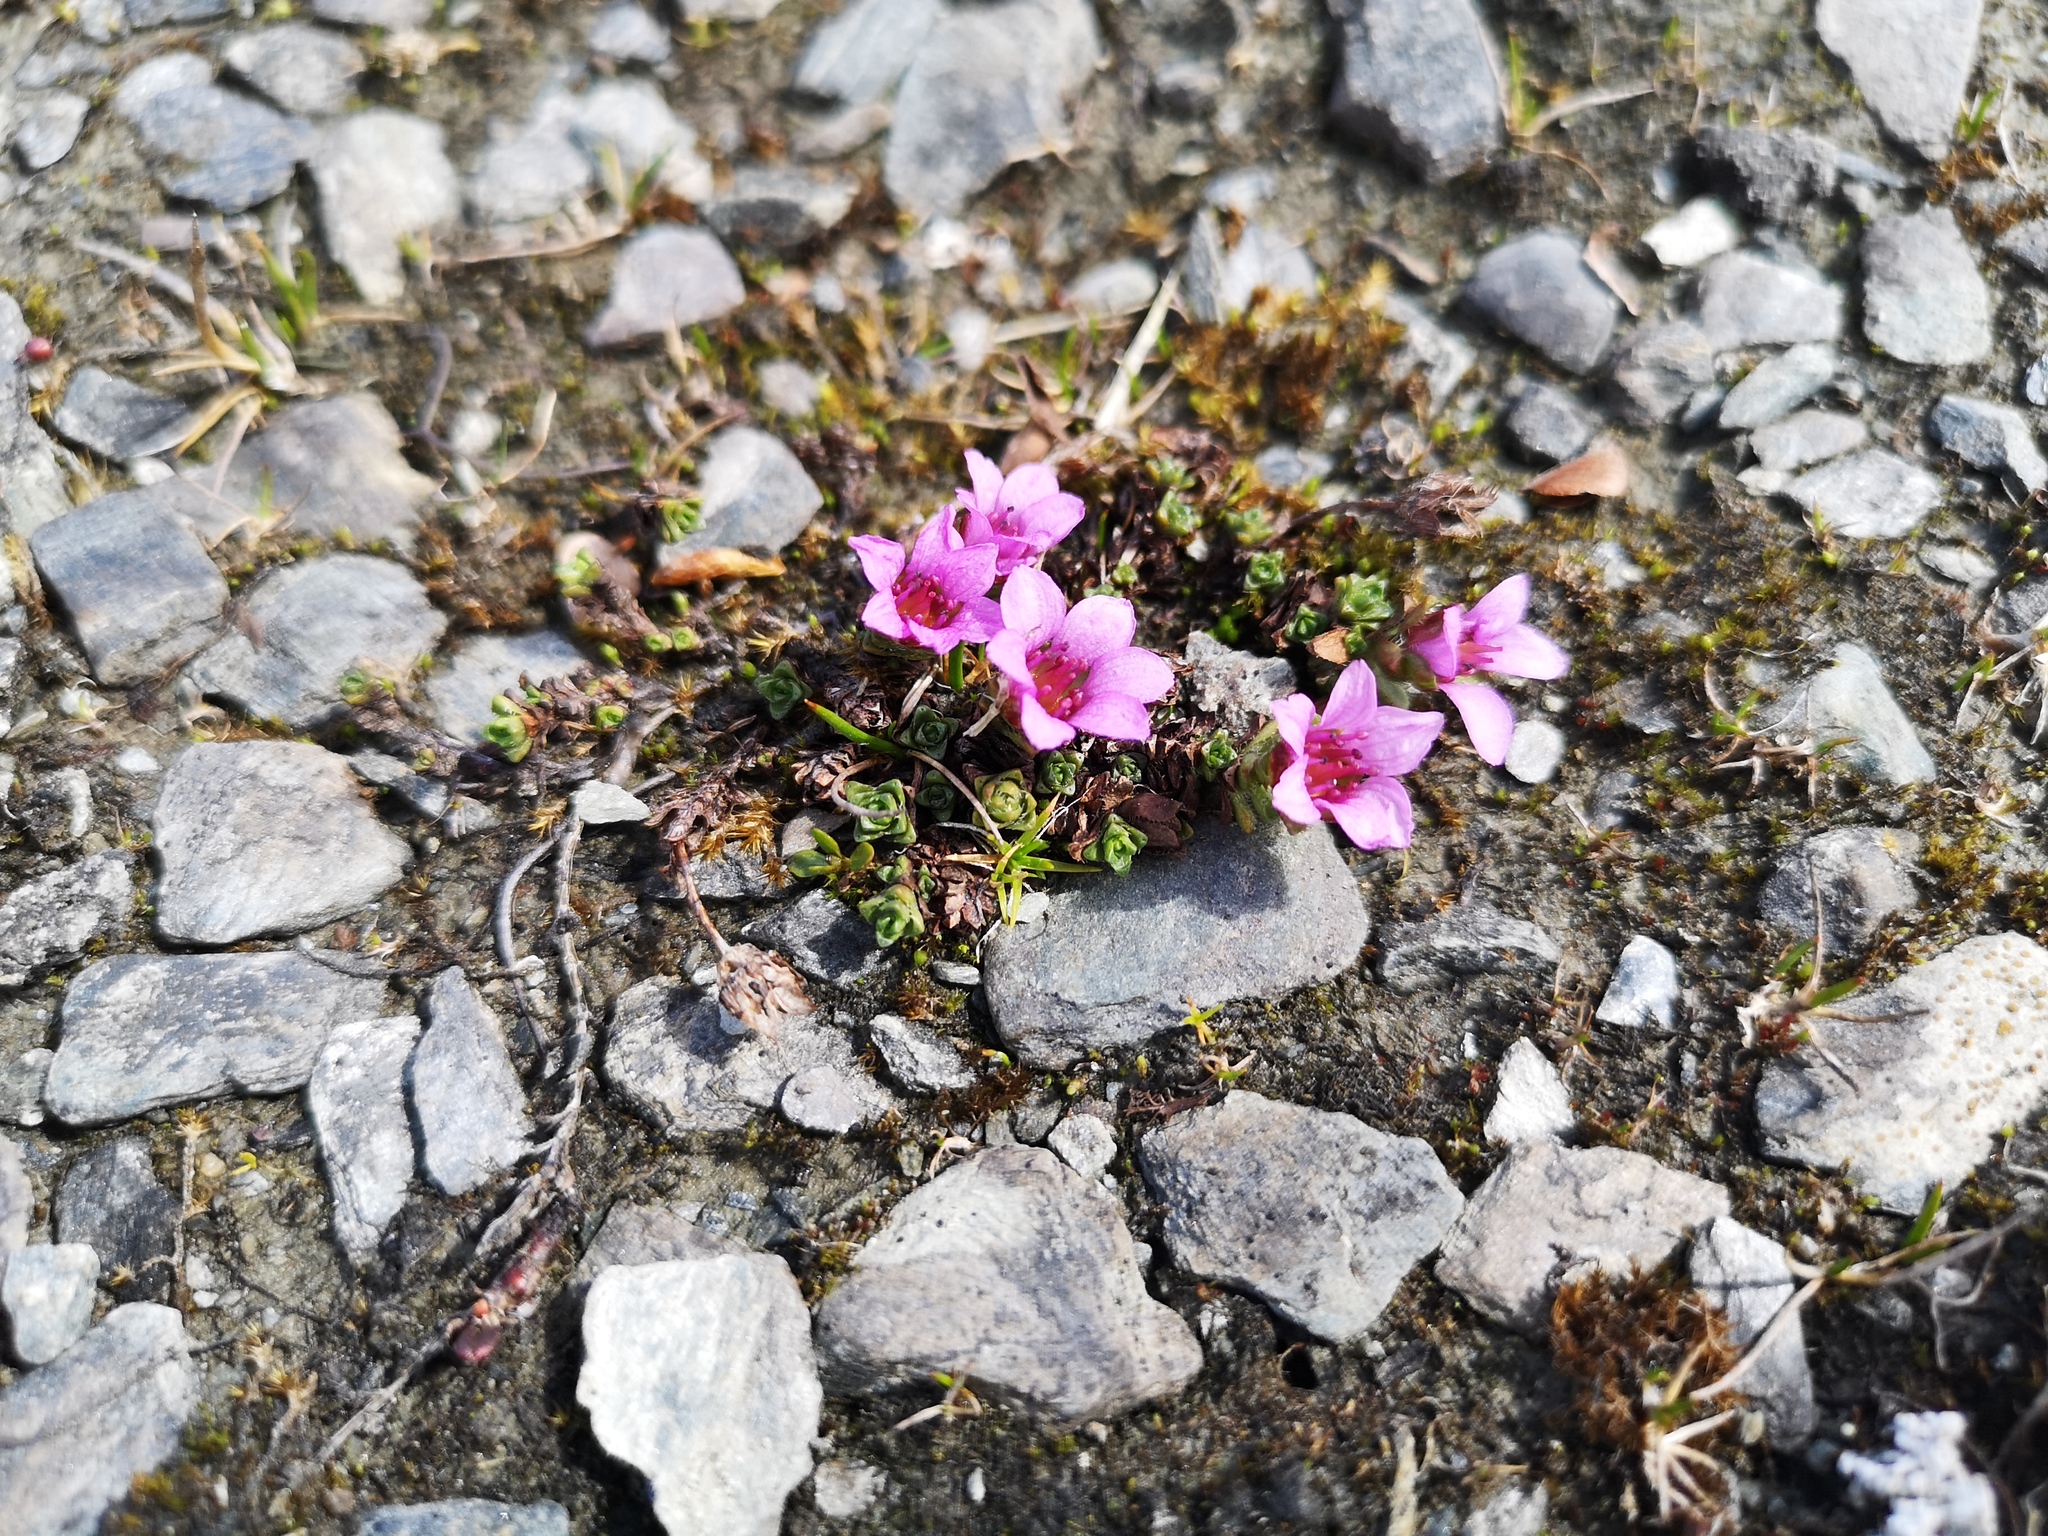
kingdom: Plantae
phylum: Tracheophyta
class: Magnoliopsida
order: Saxifragales
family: Saxifragaceae
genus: Saxifraga
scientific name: Saxifraga oppositifolia
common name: Purple saxifrage
